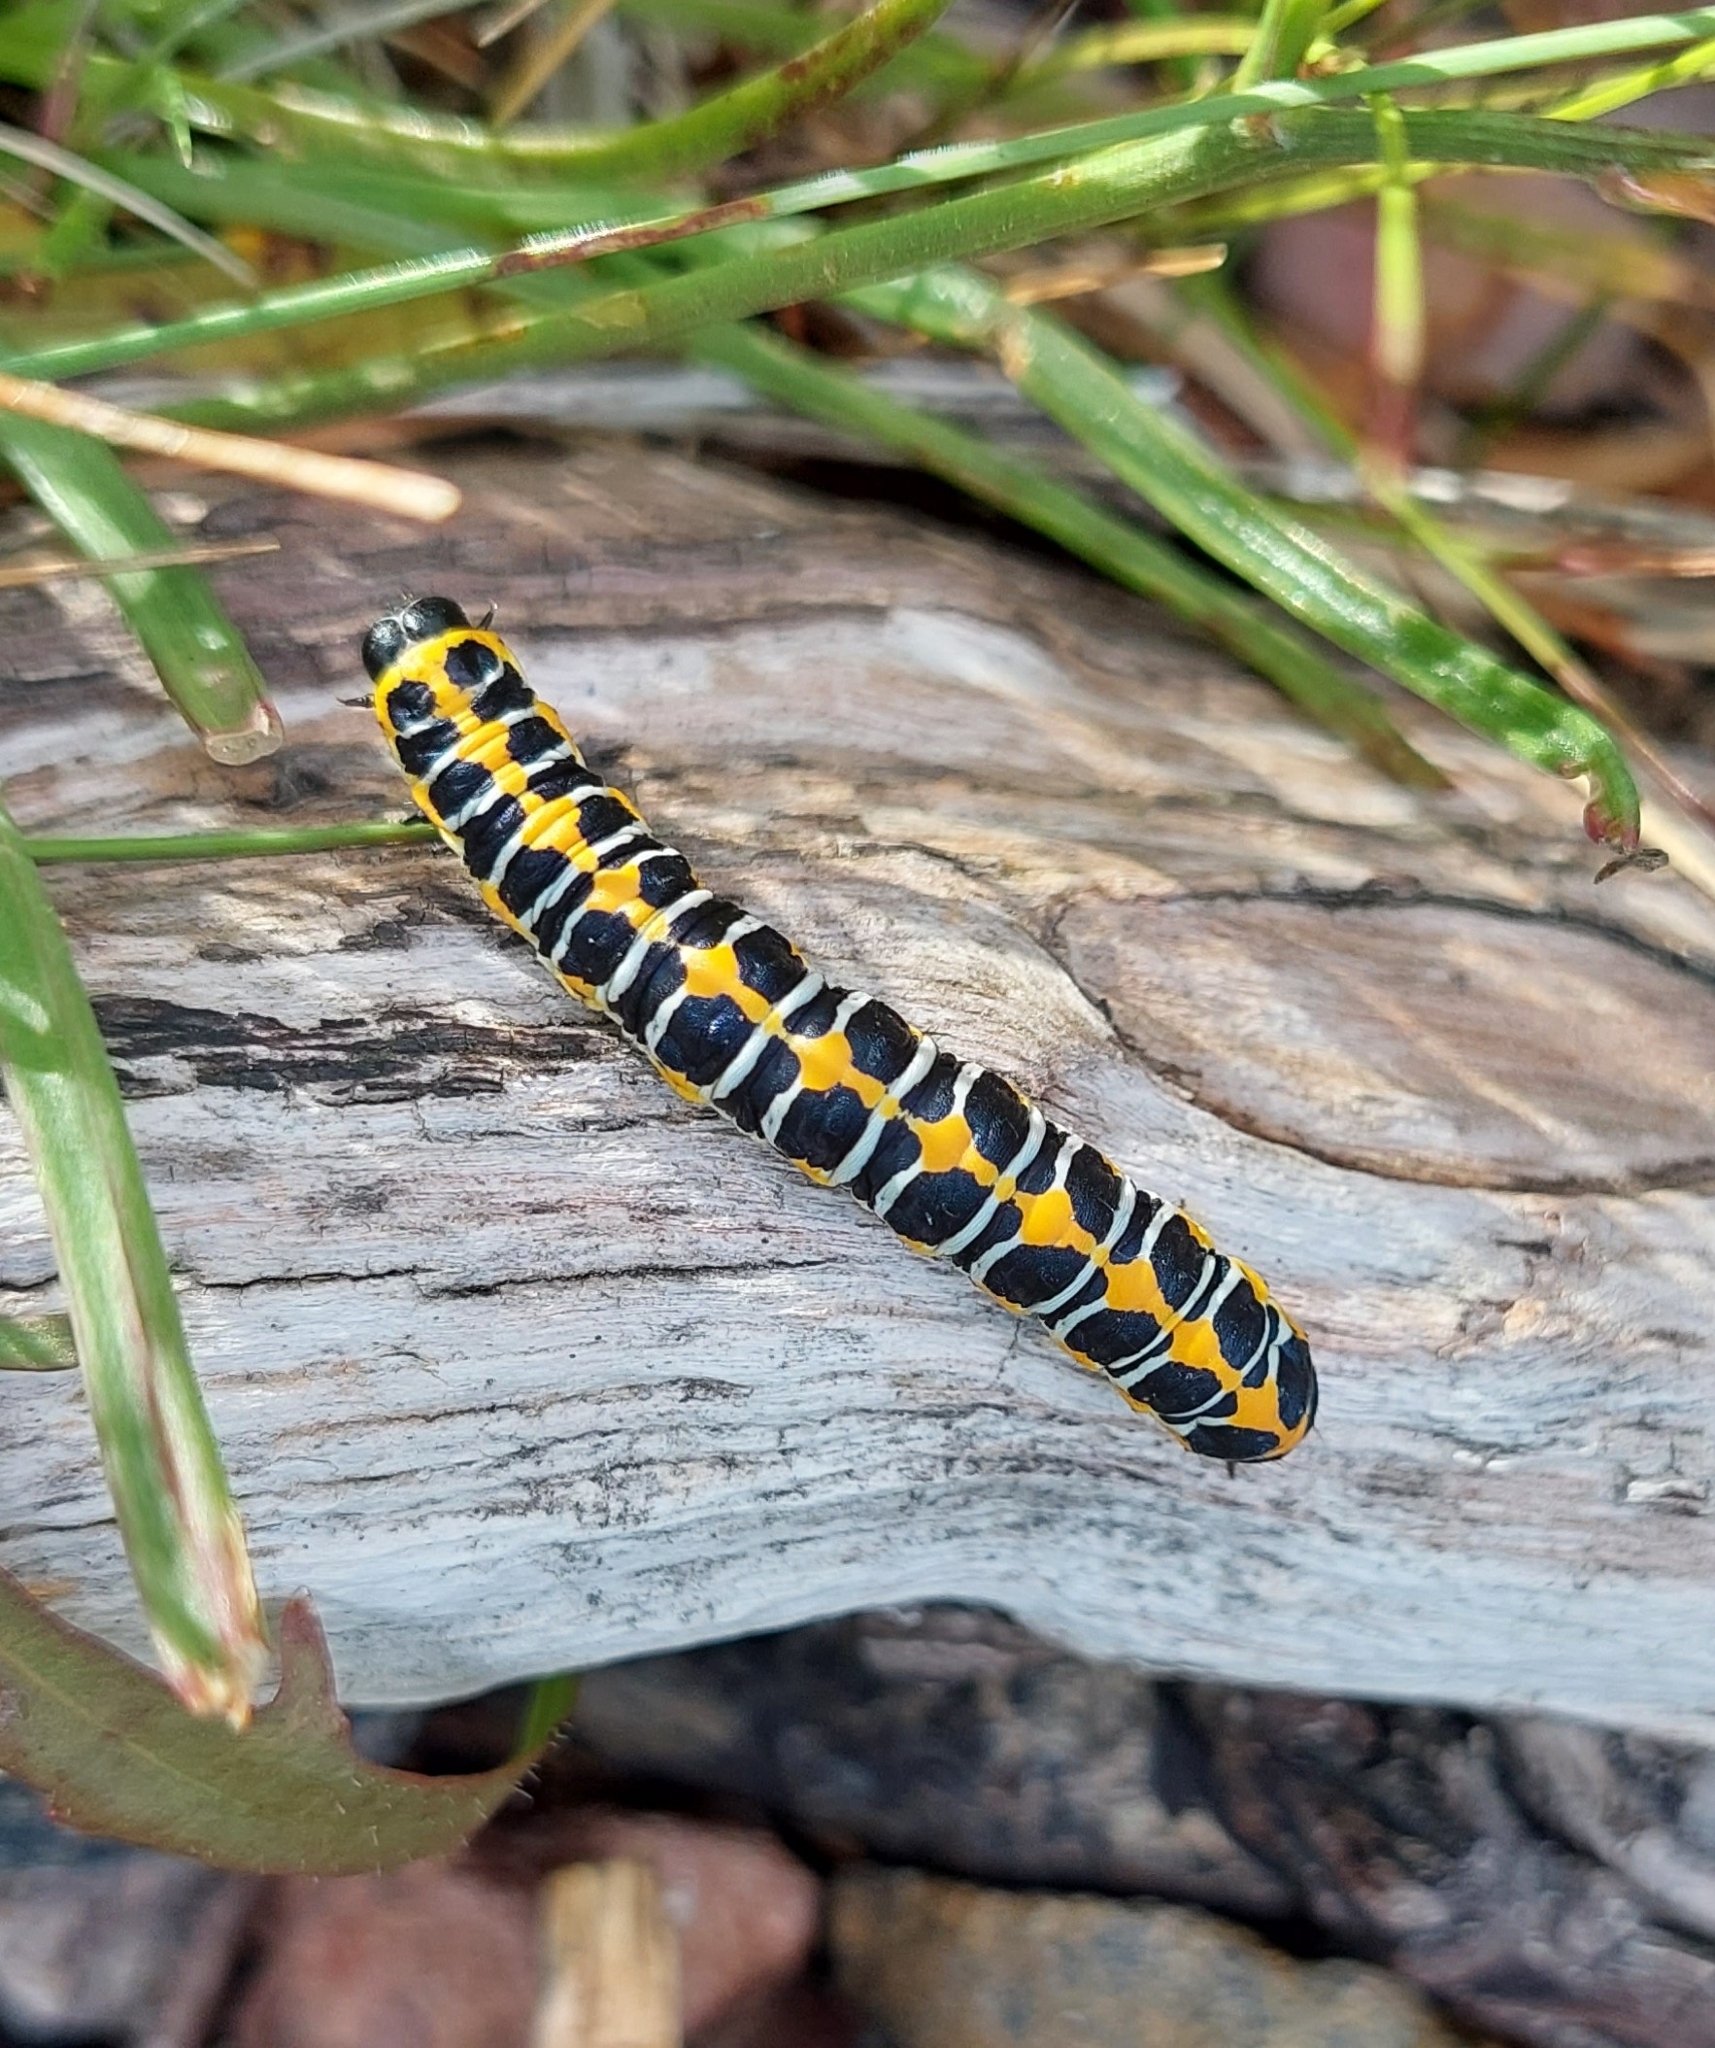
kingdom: Animalia
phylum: Arthropoda
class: Insecta
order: Lepidoptera
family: Noctuidae
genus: Cucullia
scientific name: Cucullia lactucae
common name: Lettuce shark
